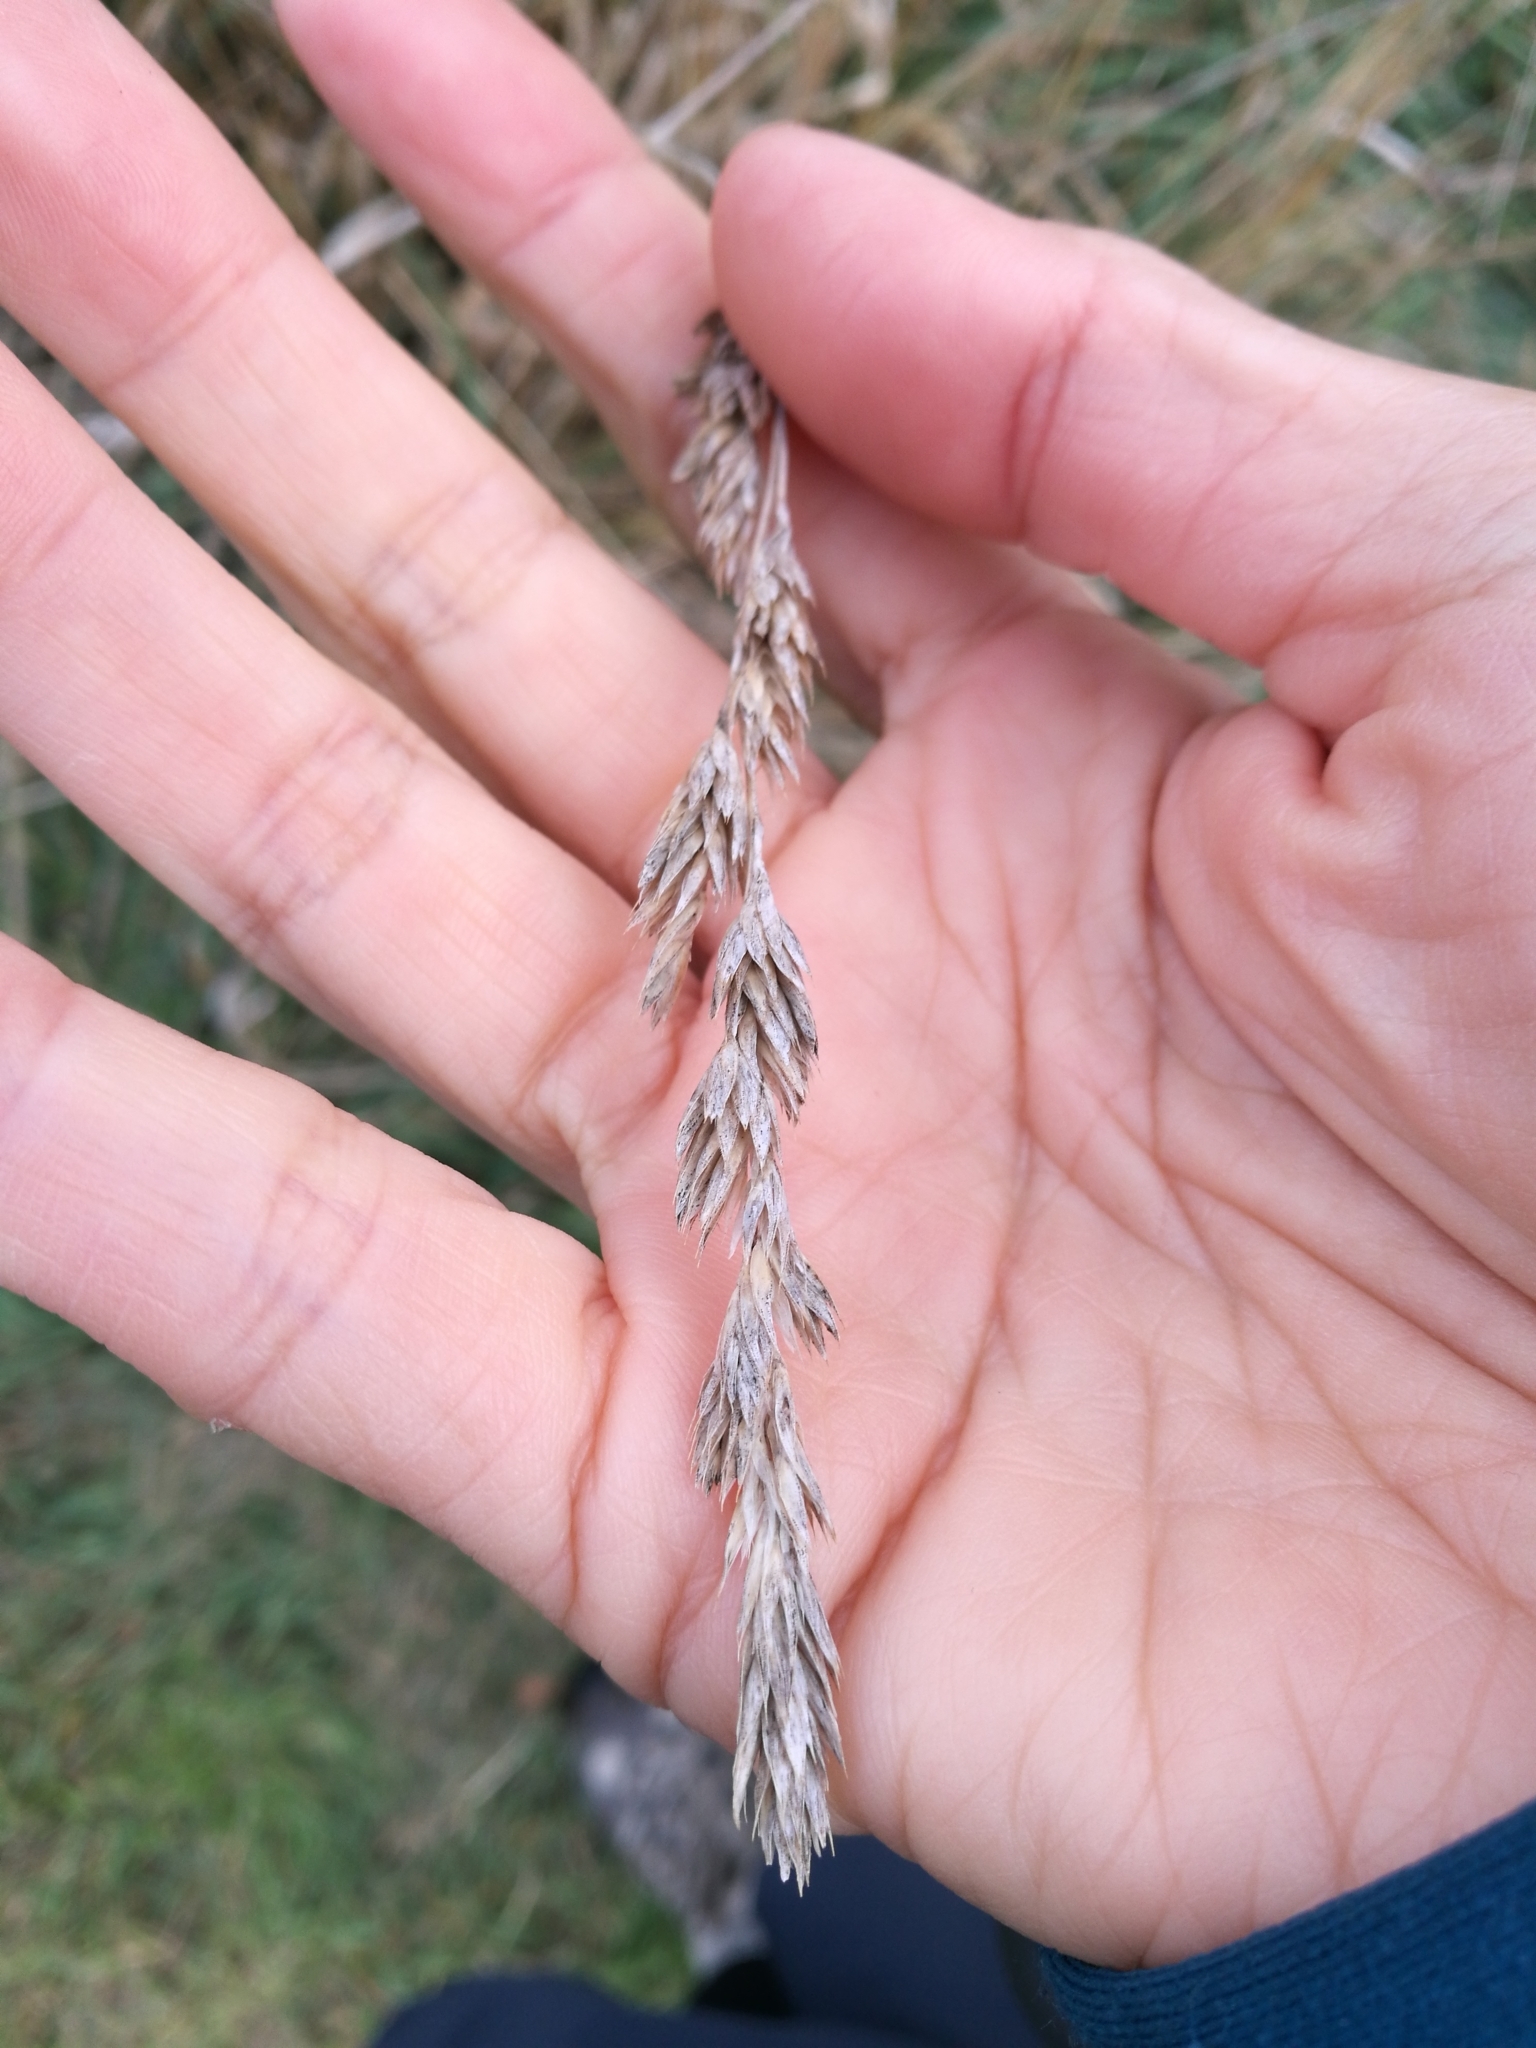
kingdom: Plantae
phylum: Tracheophyta
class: Liliopsida
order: Poales
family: Poaceae
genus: Dactylis
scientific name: Dactylis glomerata
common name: Orchardgrass
